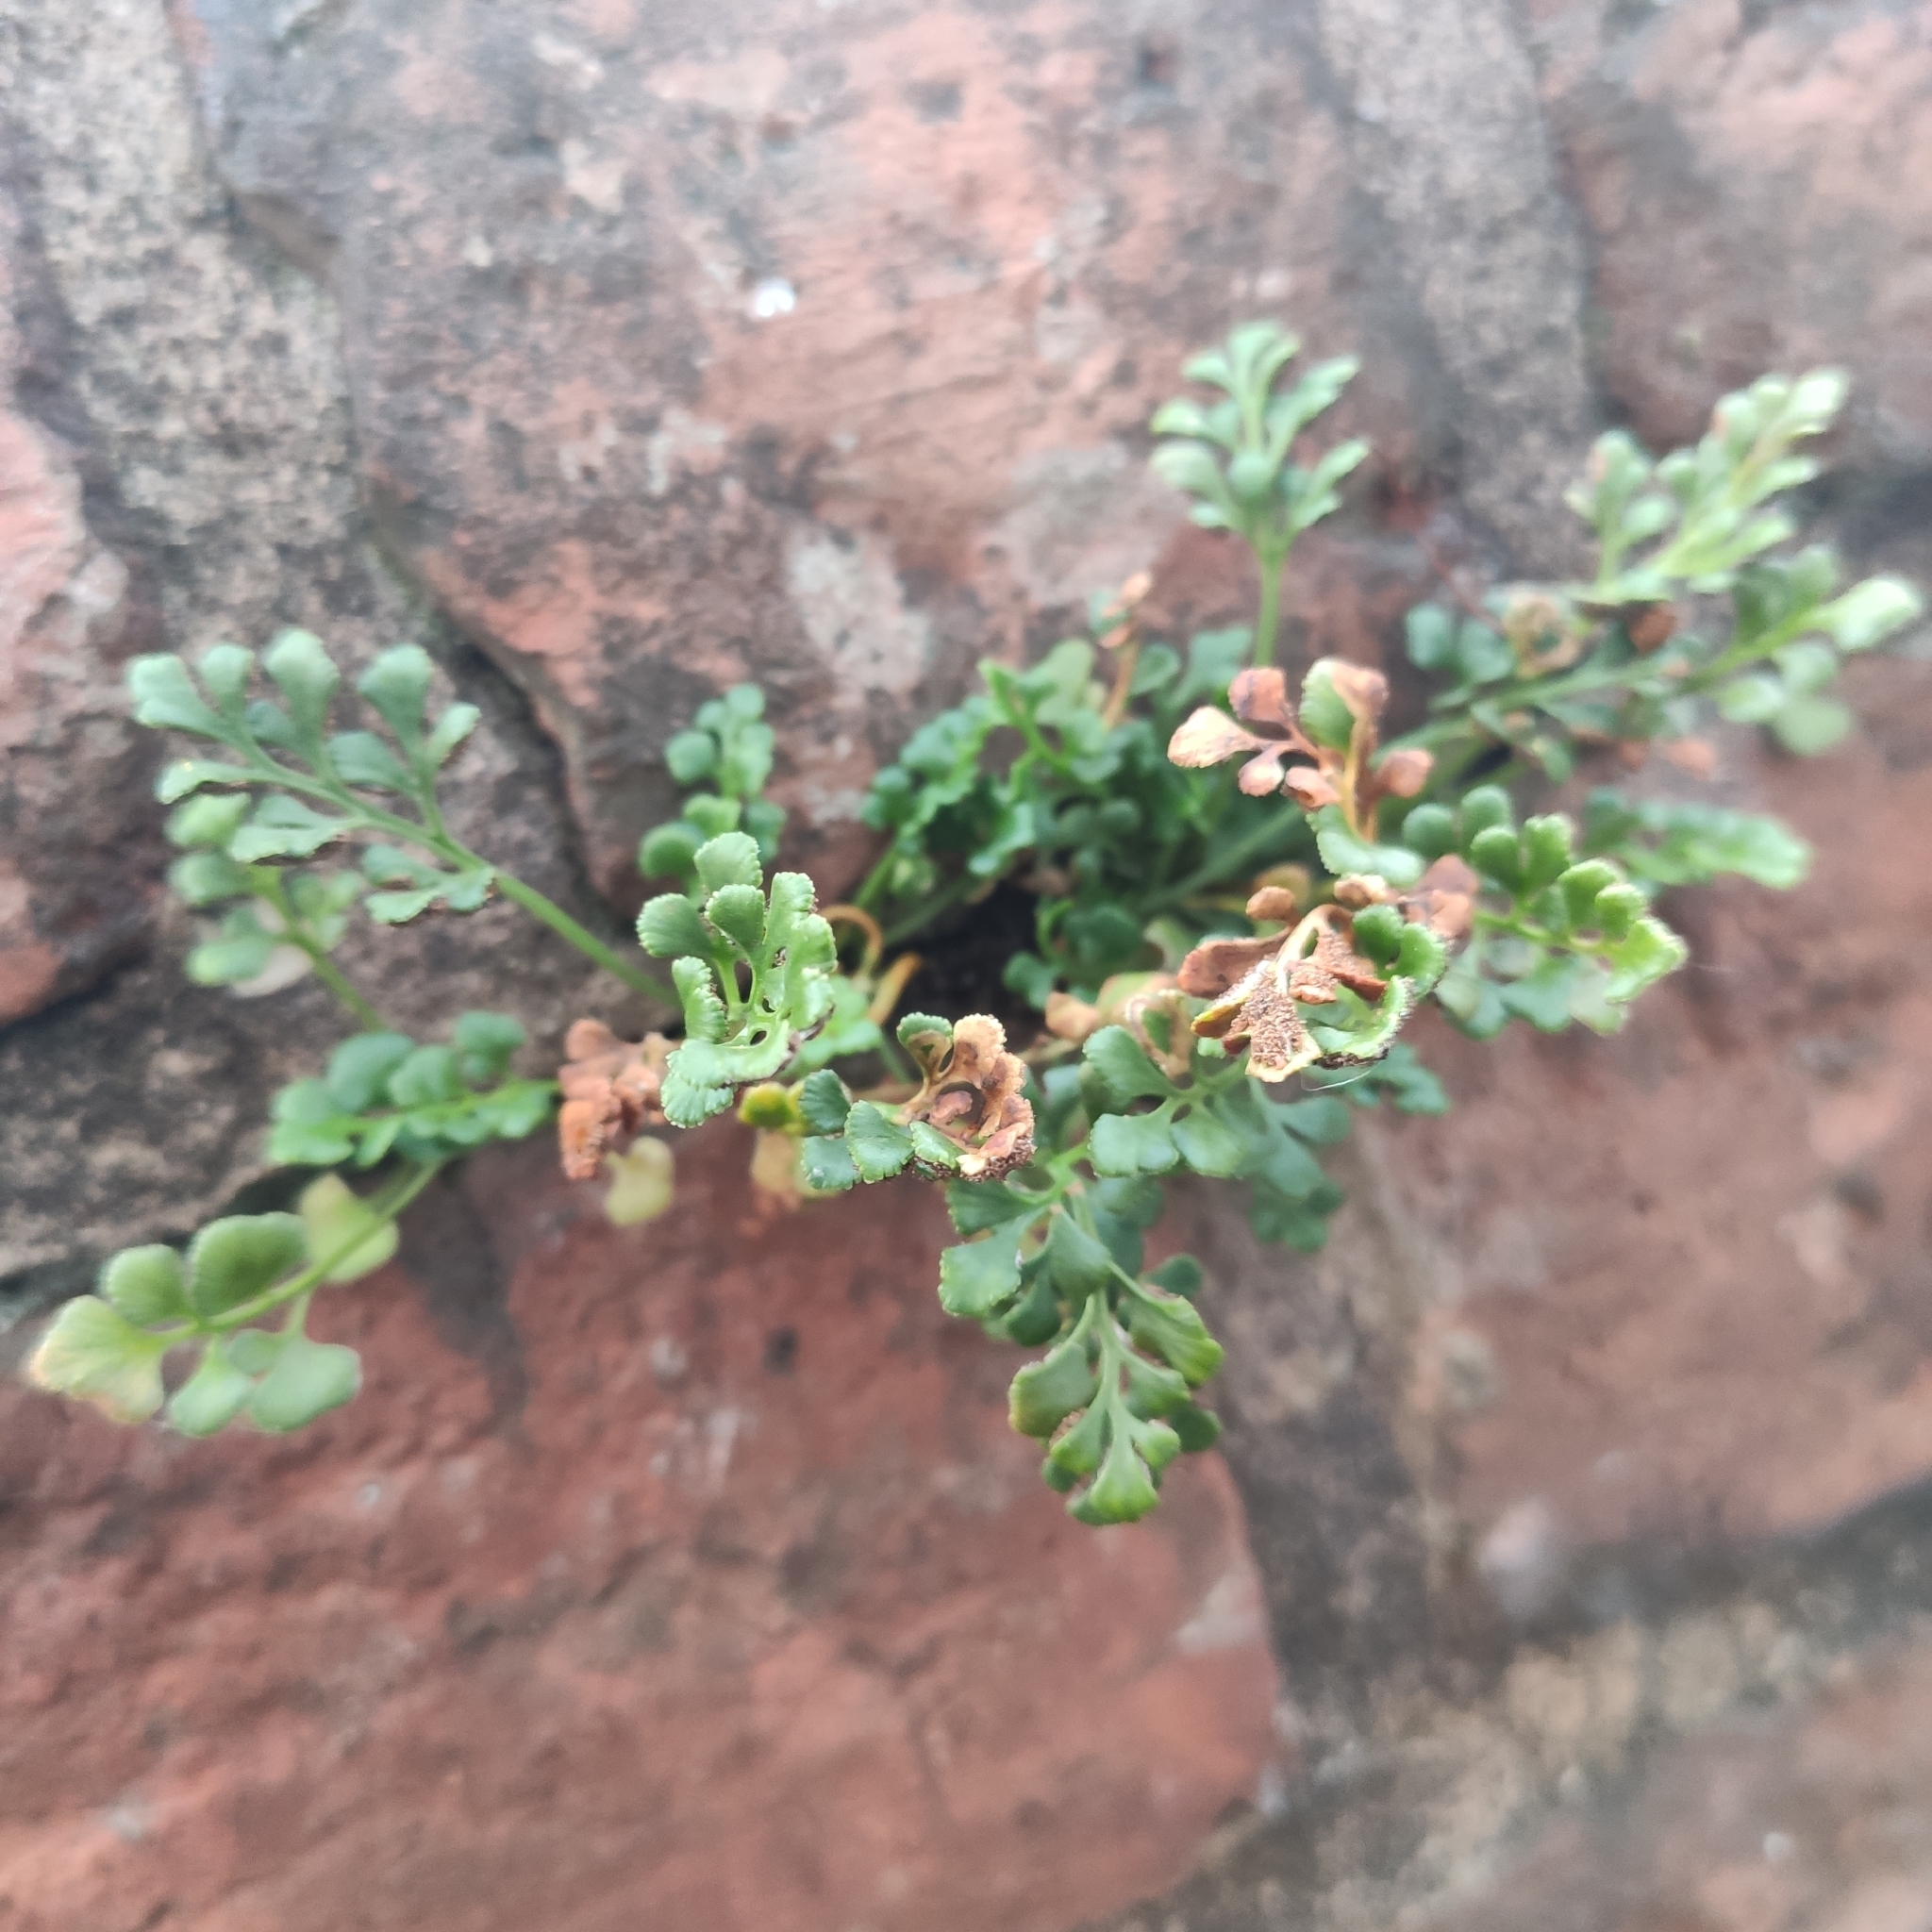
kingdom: Plantae
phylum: Tracheophyta
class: Polypodiopsida
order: Polypodiales
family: Aspleniaceae
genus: Asplenium
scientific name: Asplenium ruta-muraria
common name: Wall-rue
